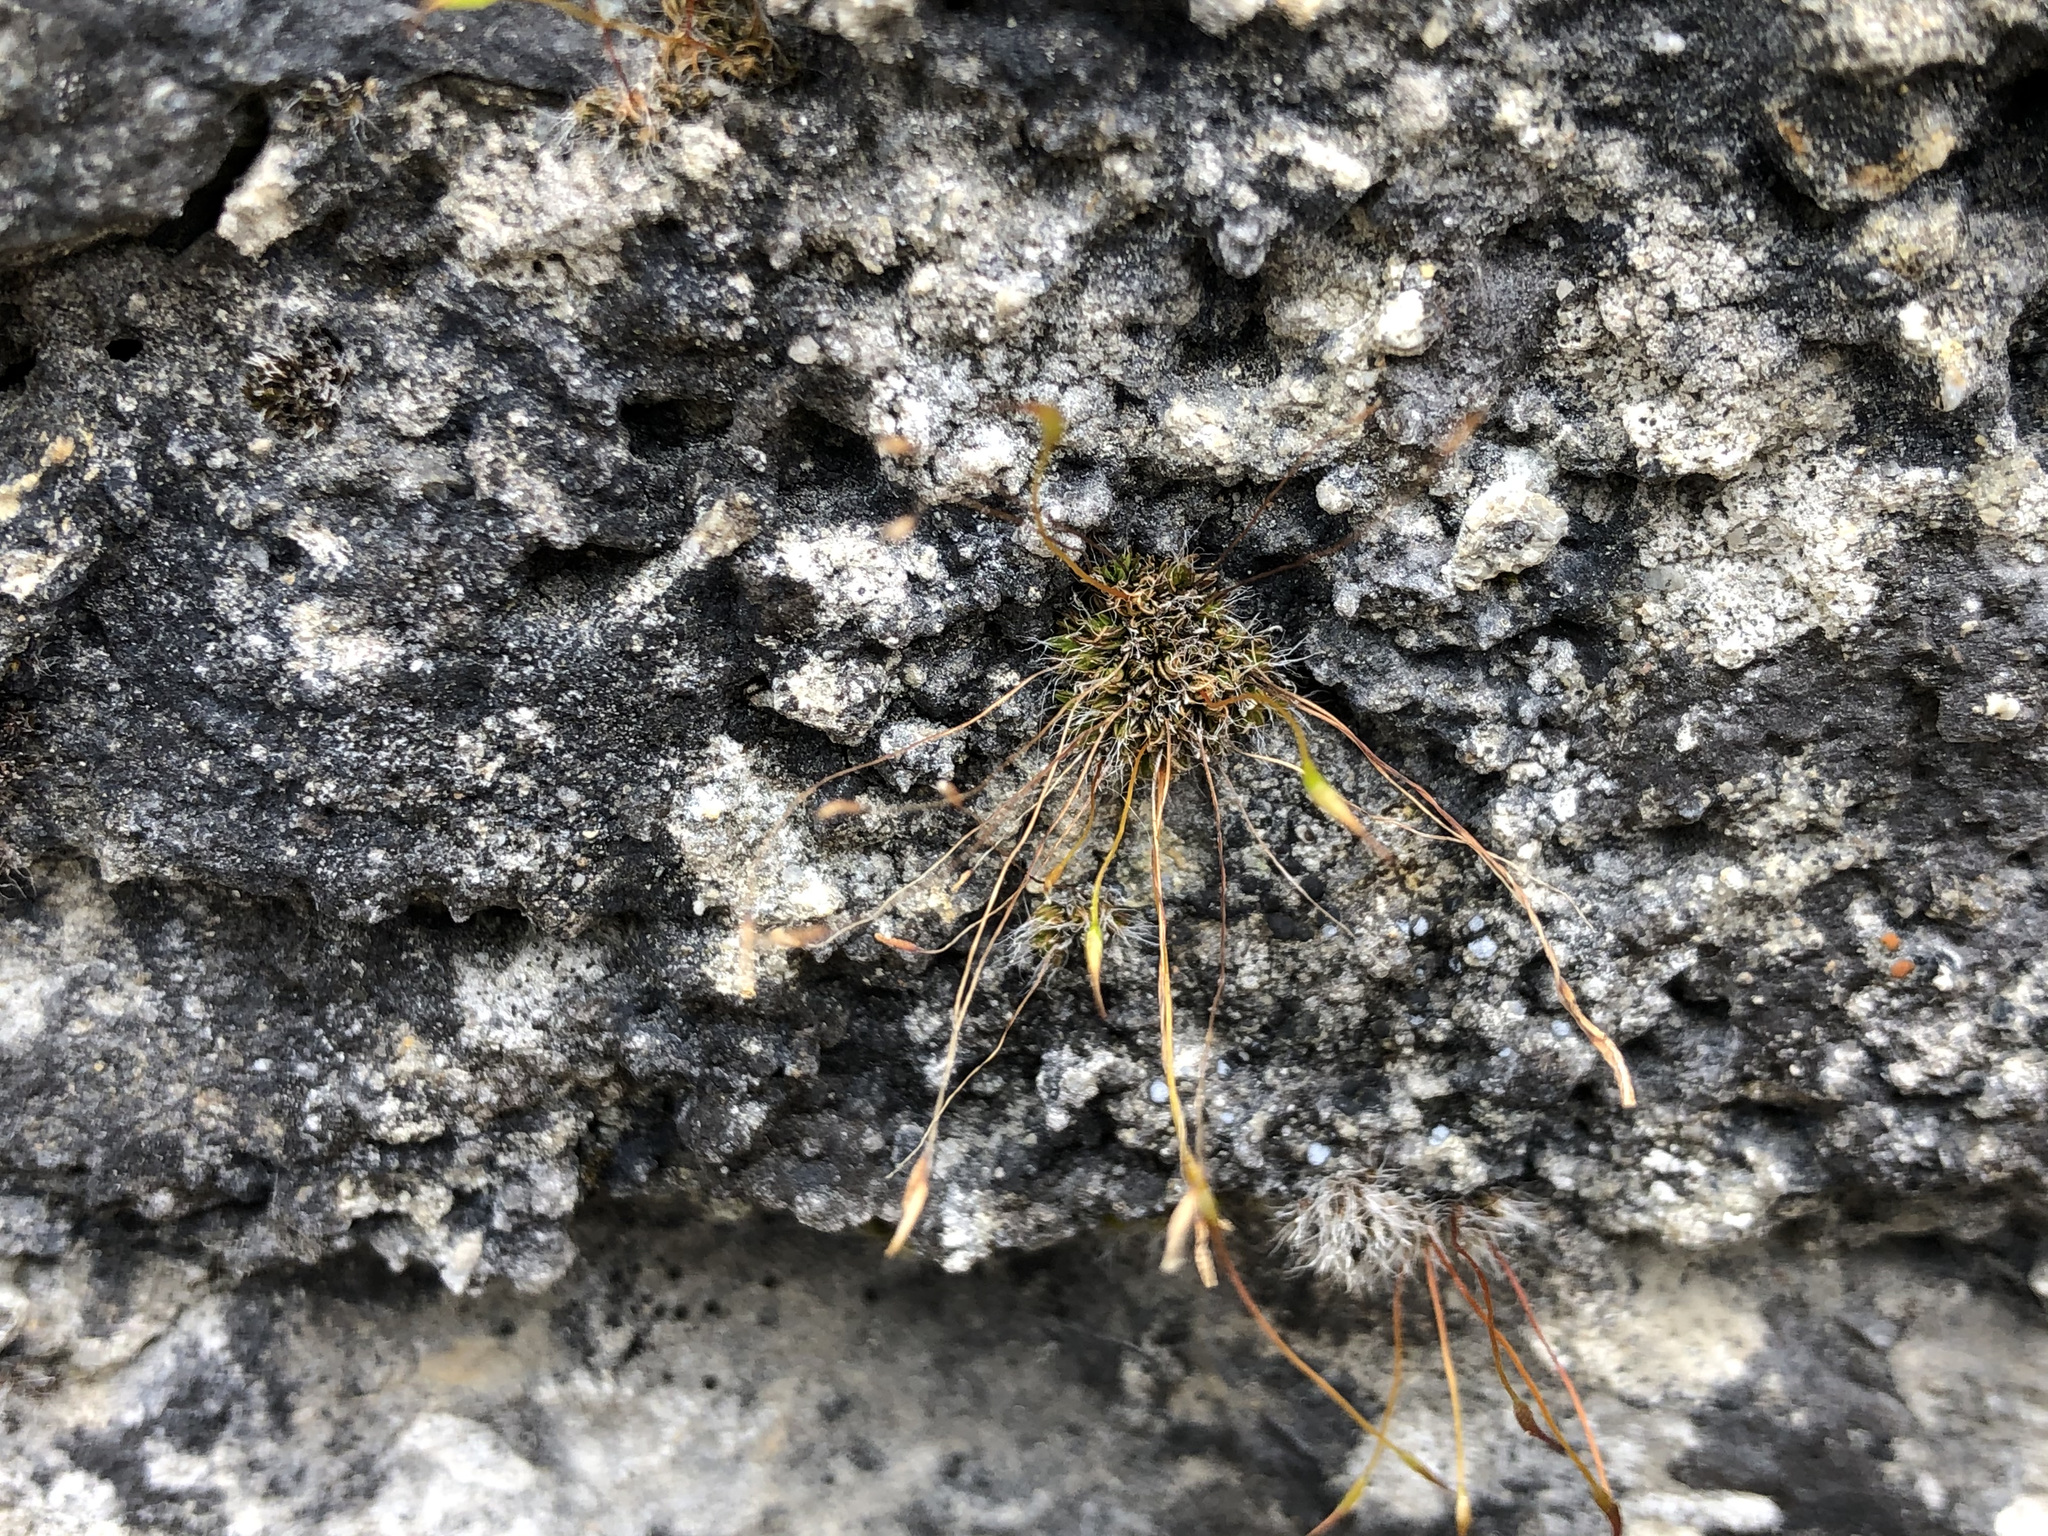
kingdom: Plantae
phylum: Bryophyta
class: Bryopsida
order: Pottiales
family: Pottiaceae
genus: Tortula
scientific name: Tortula muralis
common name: Wall screw-moss
